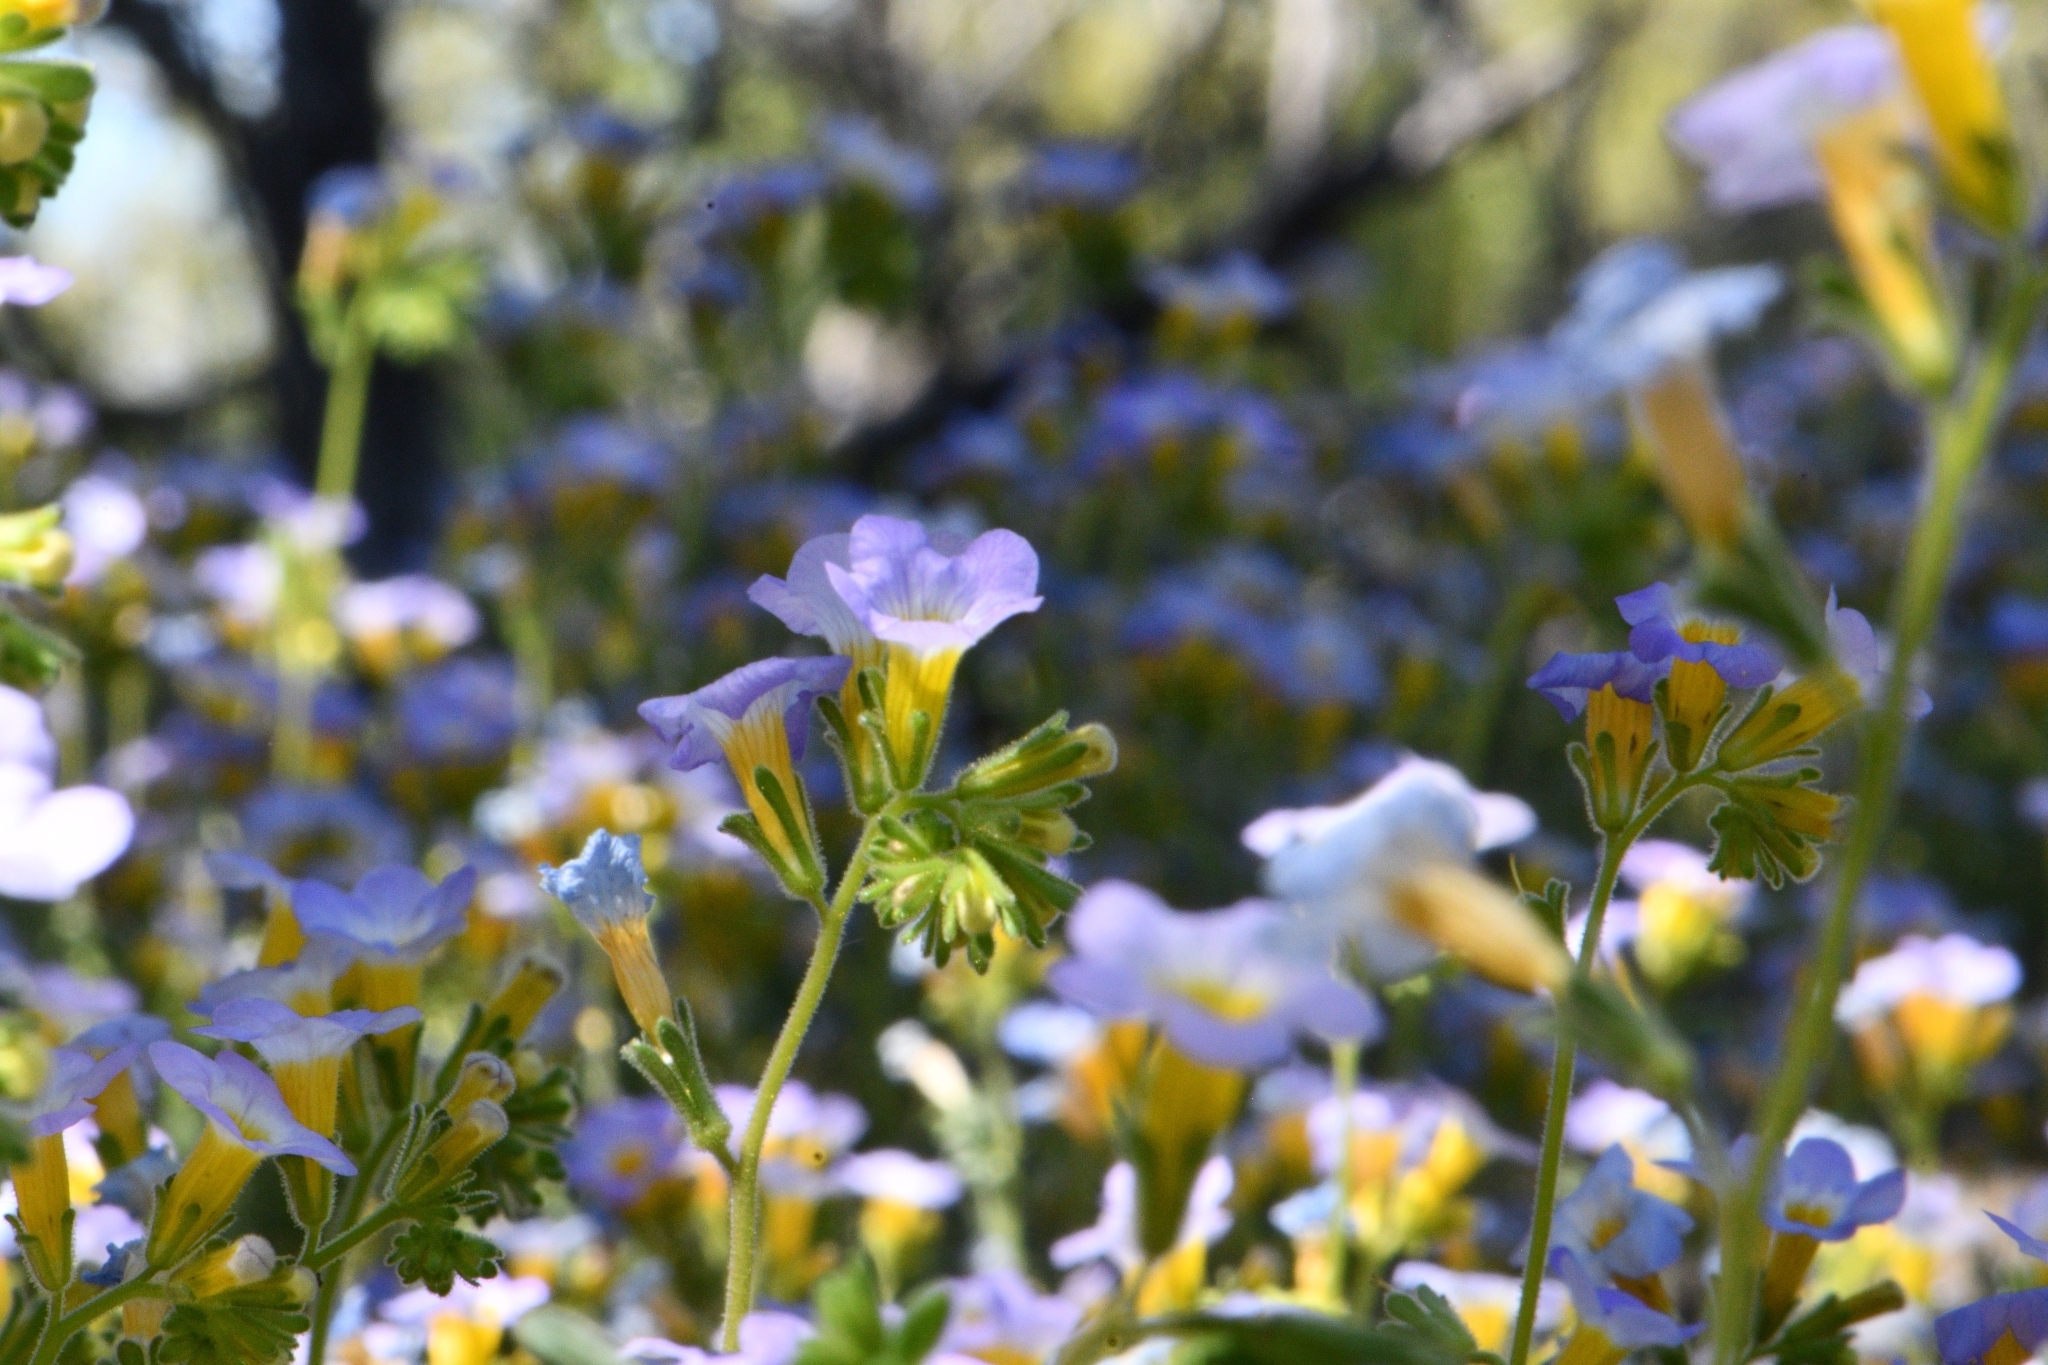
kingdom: Plantae
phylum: Tracheophyta
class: Magnoliopsida
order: Boraginales
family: Hydrophyllaceae
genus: Phacelia
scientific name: Phacelia fremontii
